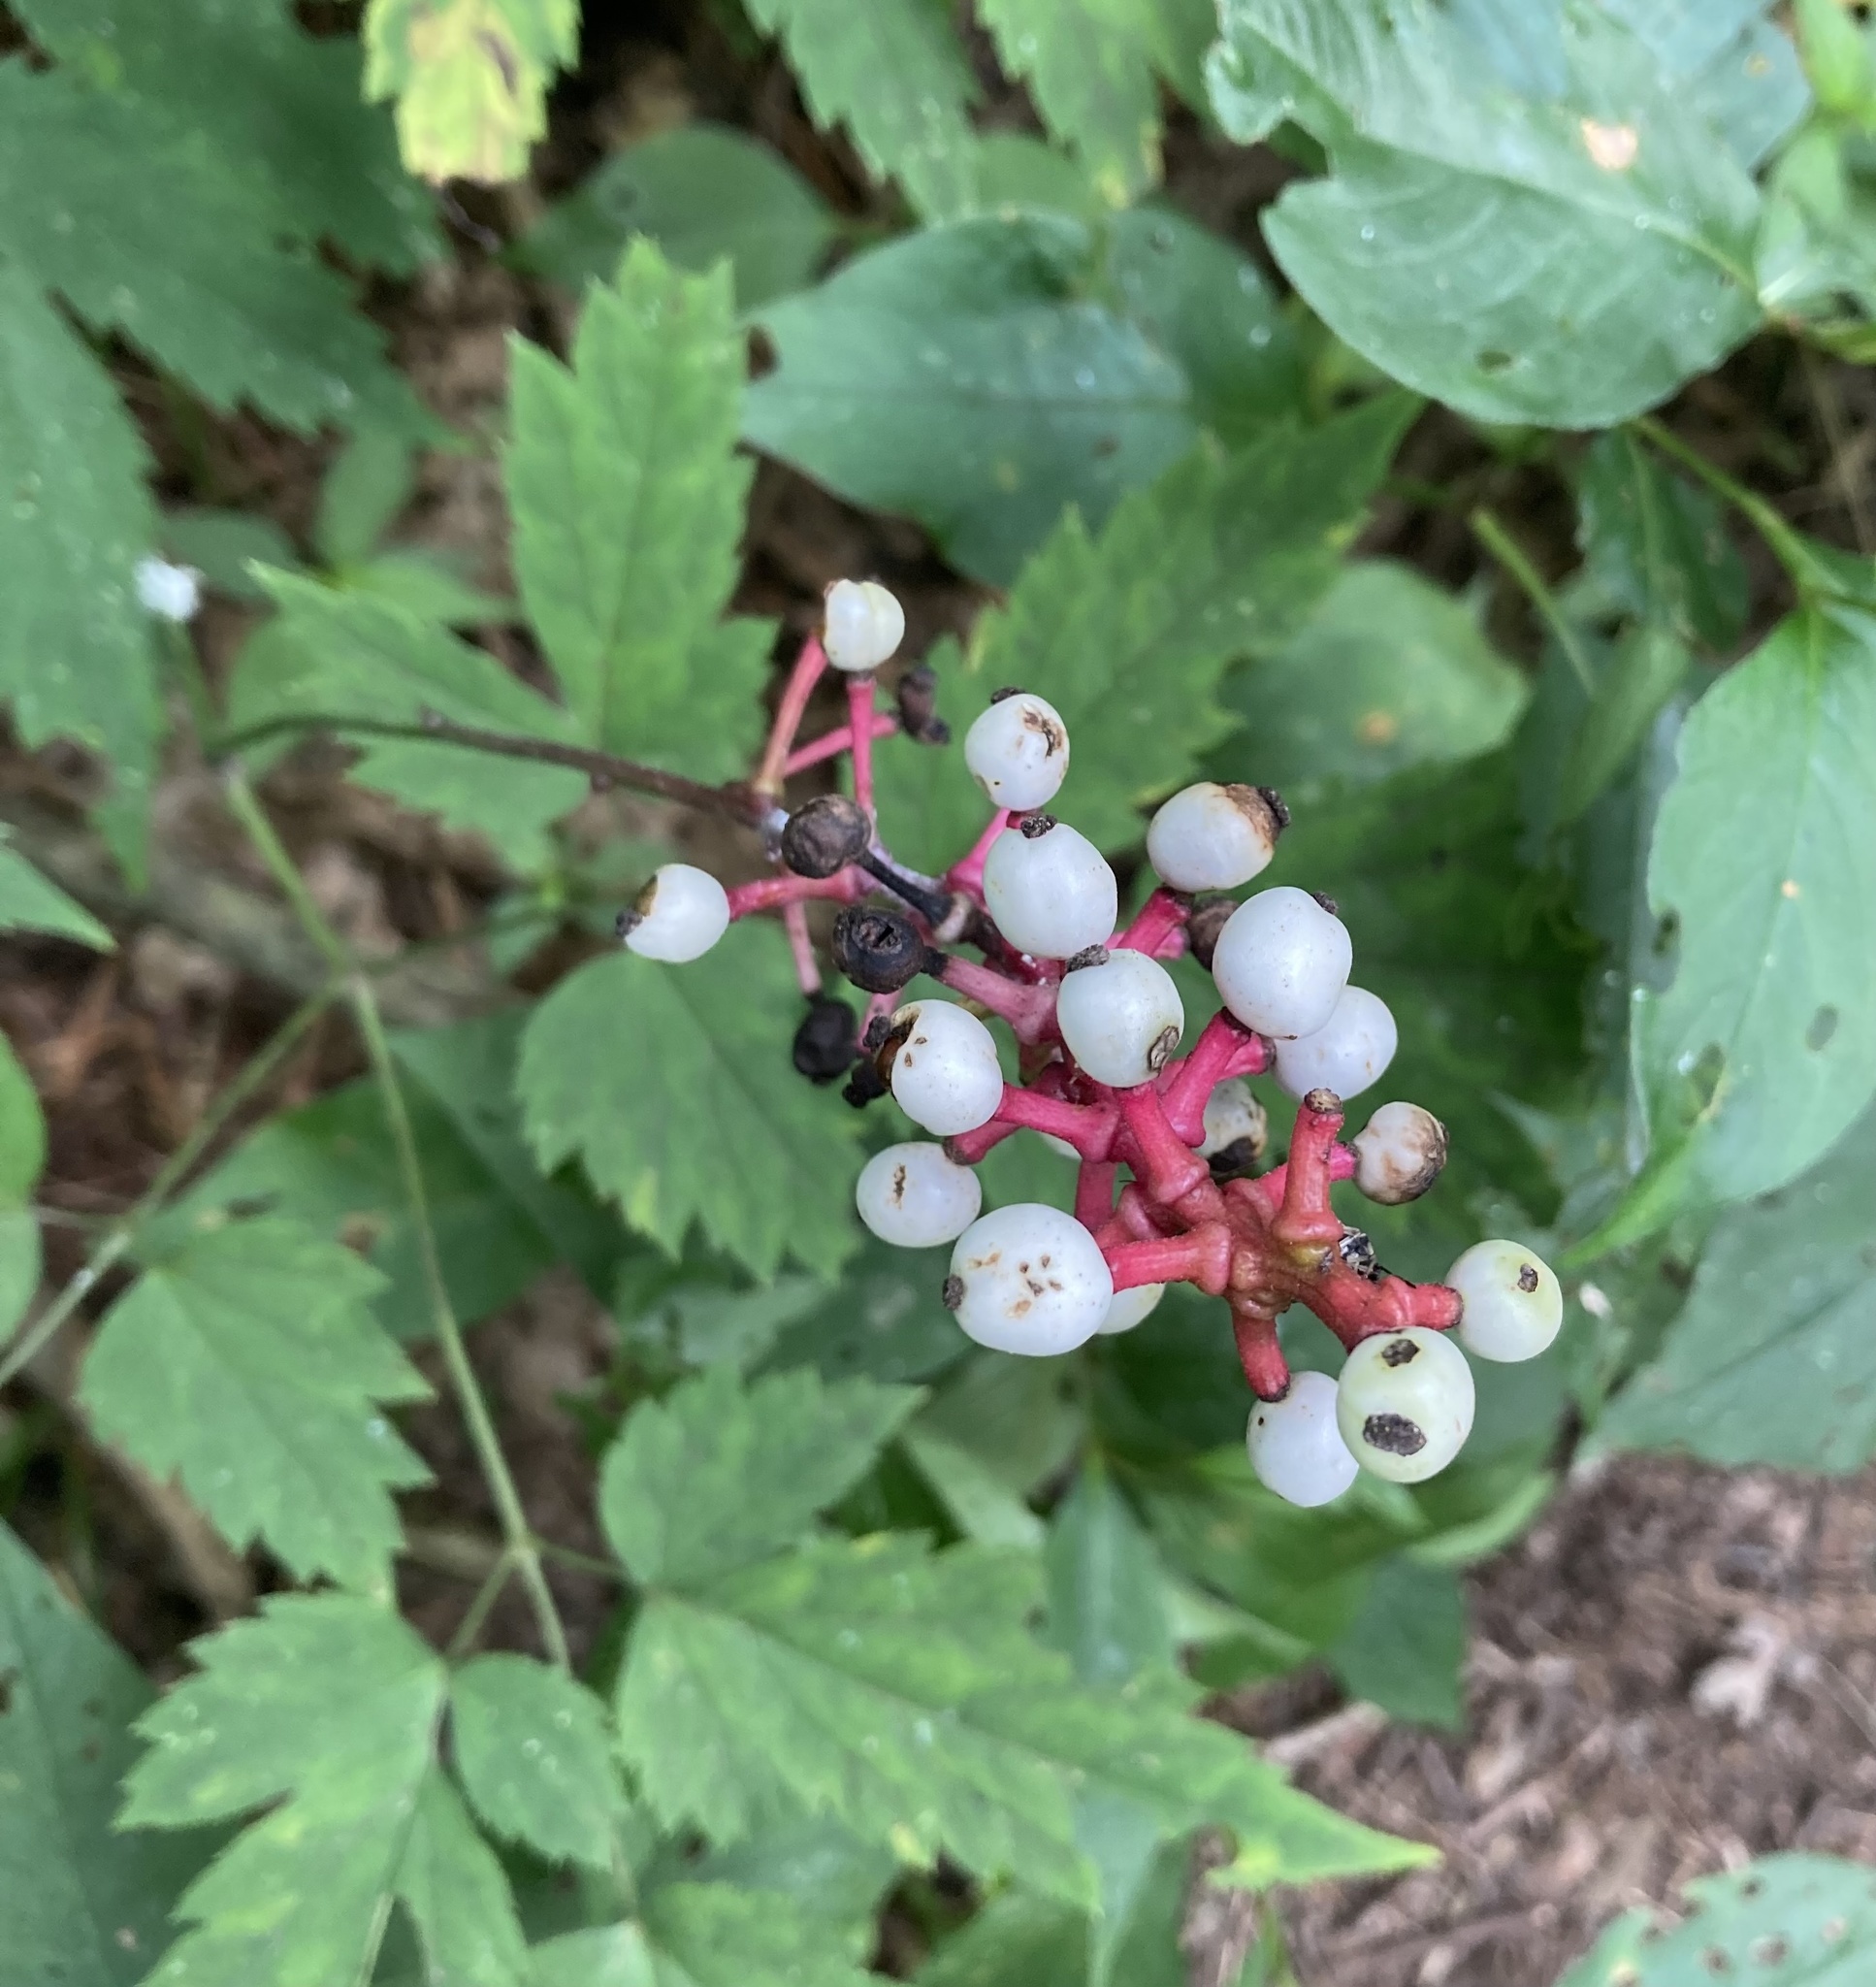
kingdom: Plantae
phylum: Tracheophyta
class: Magnoliopsida
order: Ranunculales
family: Ranunculaceae
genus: Actaea
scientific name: Actaea pachypoda
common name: Doll's-eyes
